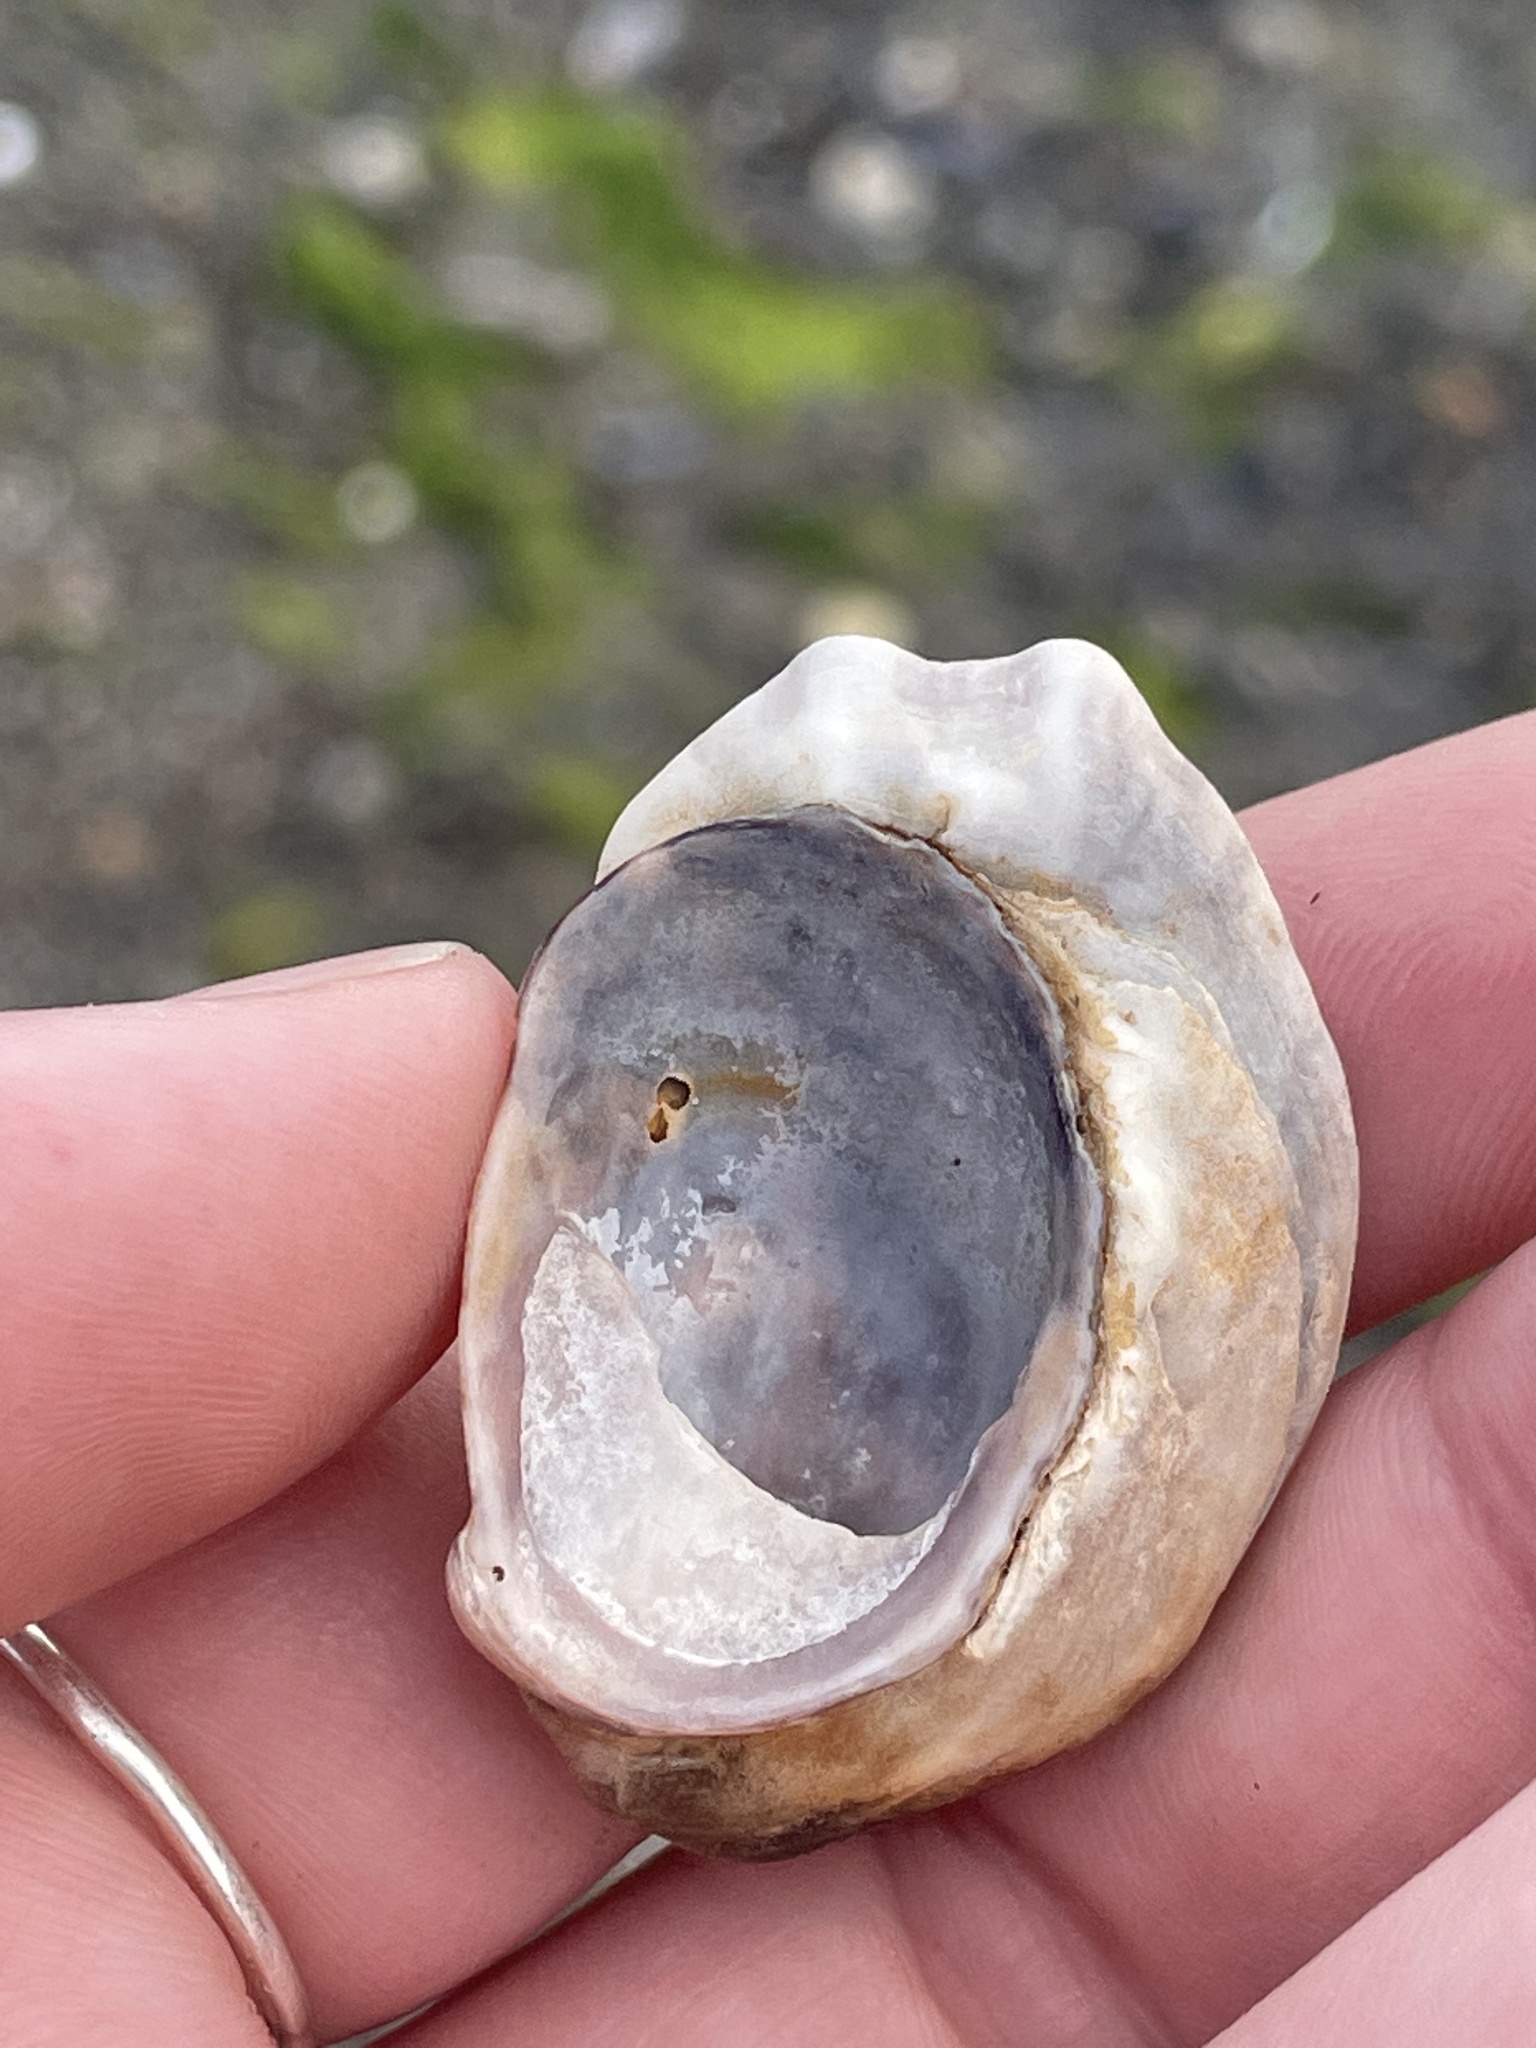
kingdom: Animalia
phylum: Mollusca
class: Gastropoda
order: Littorinimorpha
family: Calyptraeidae
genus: Crepidula
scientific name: Crepidula fornicata
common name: Slipper limpet
